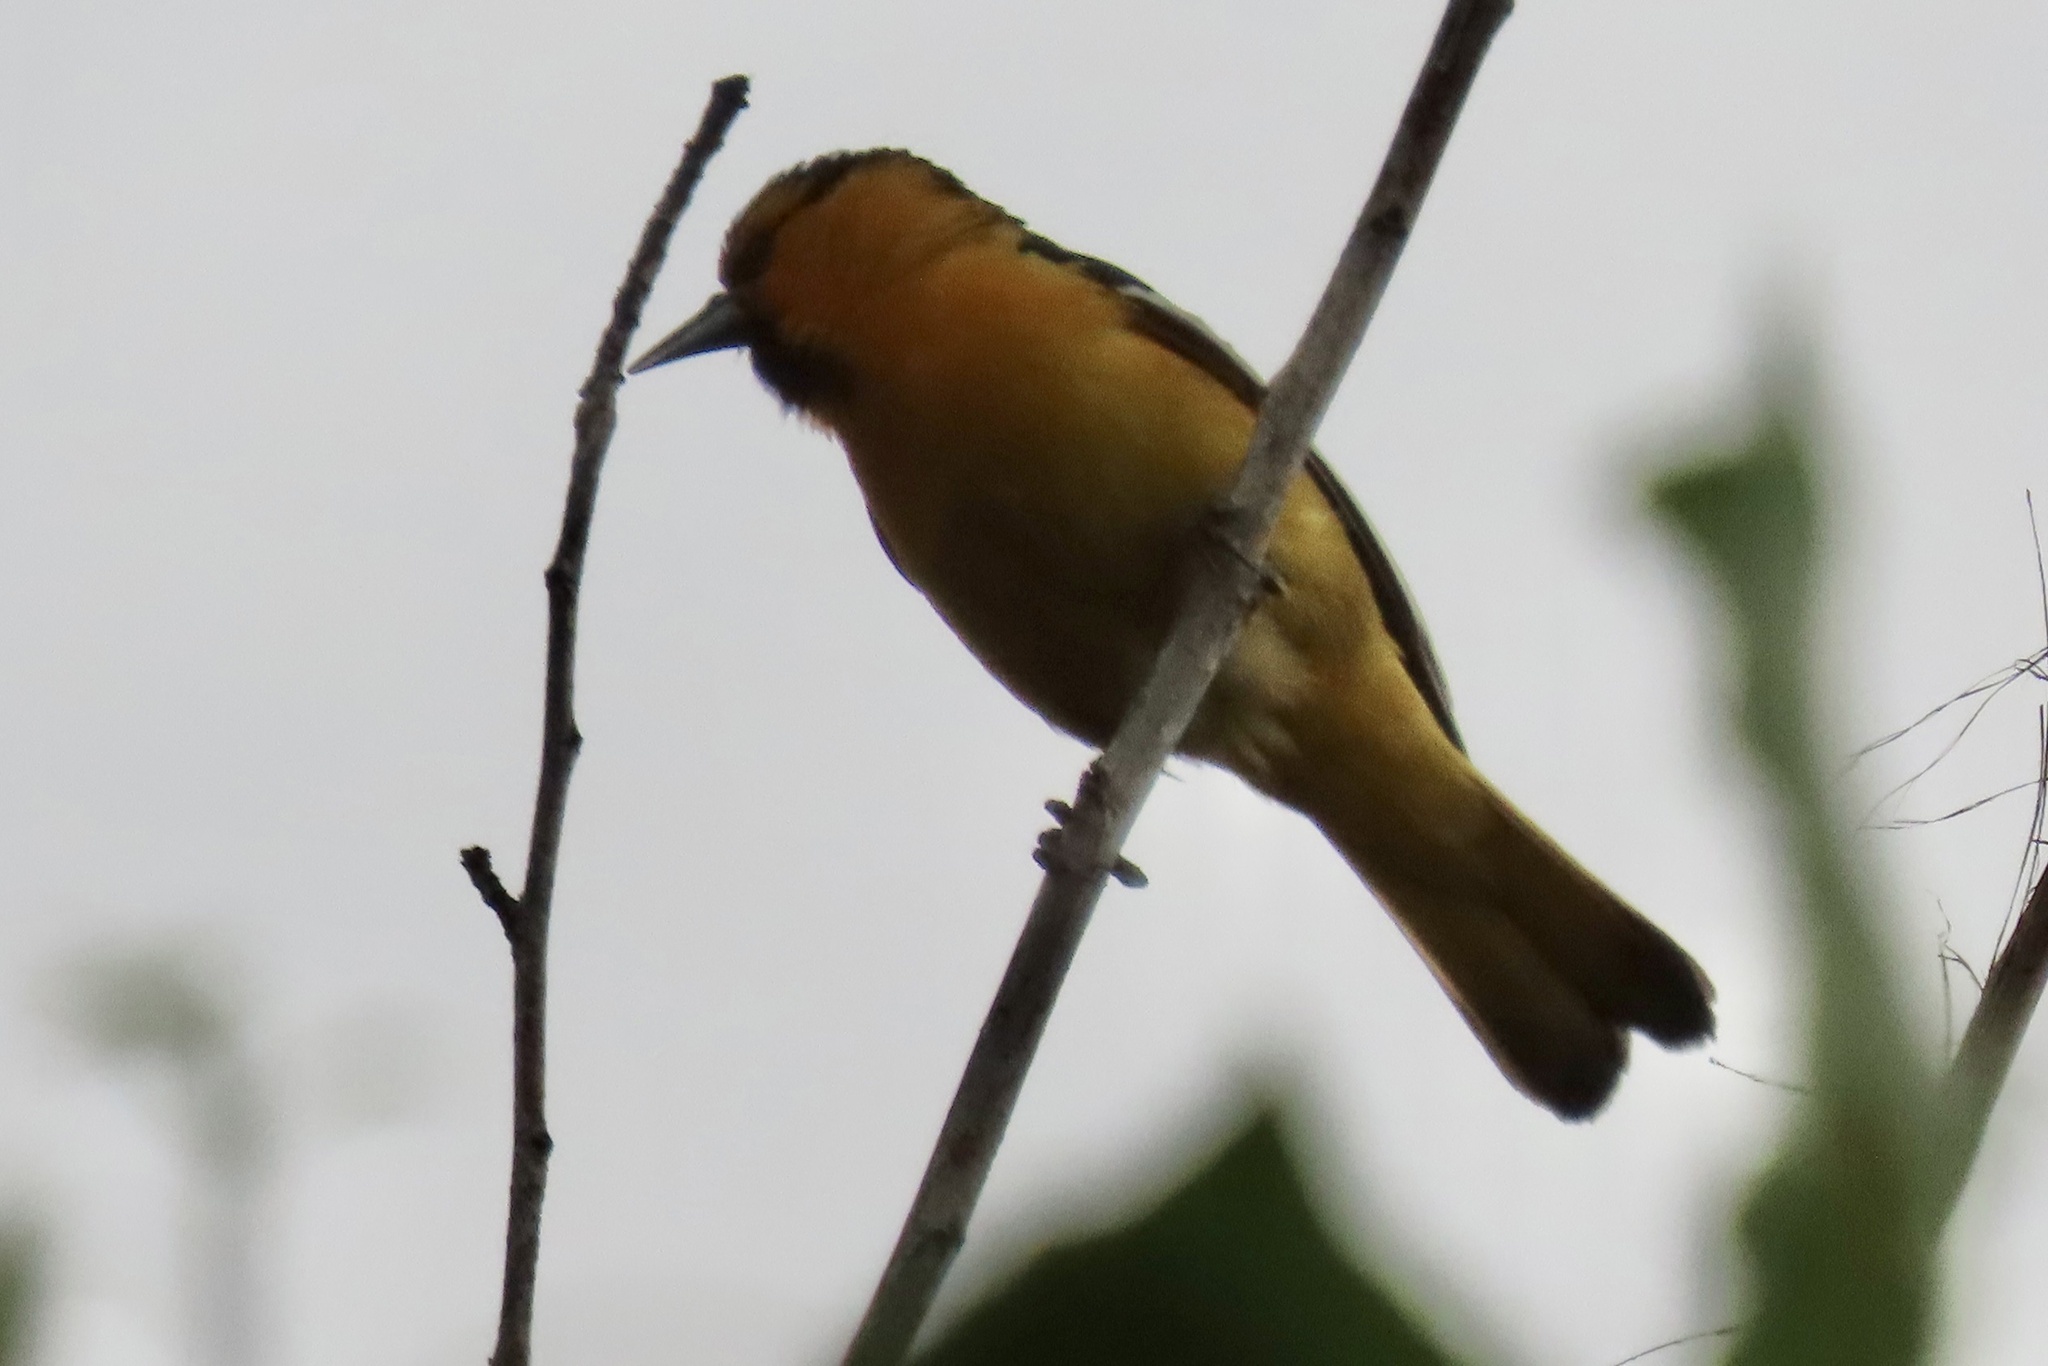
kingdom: Animalia
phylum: Chordata
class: Aves
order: Passeriformes
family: Icteridae
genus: Icterus
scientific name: Icterus bullockii
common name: Bullock's oriole
